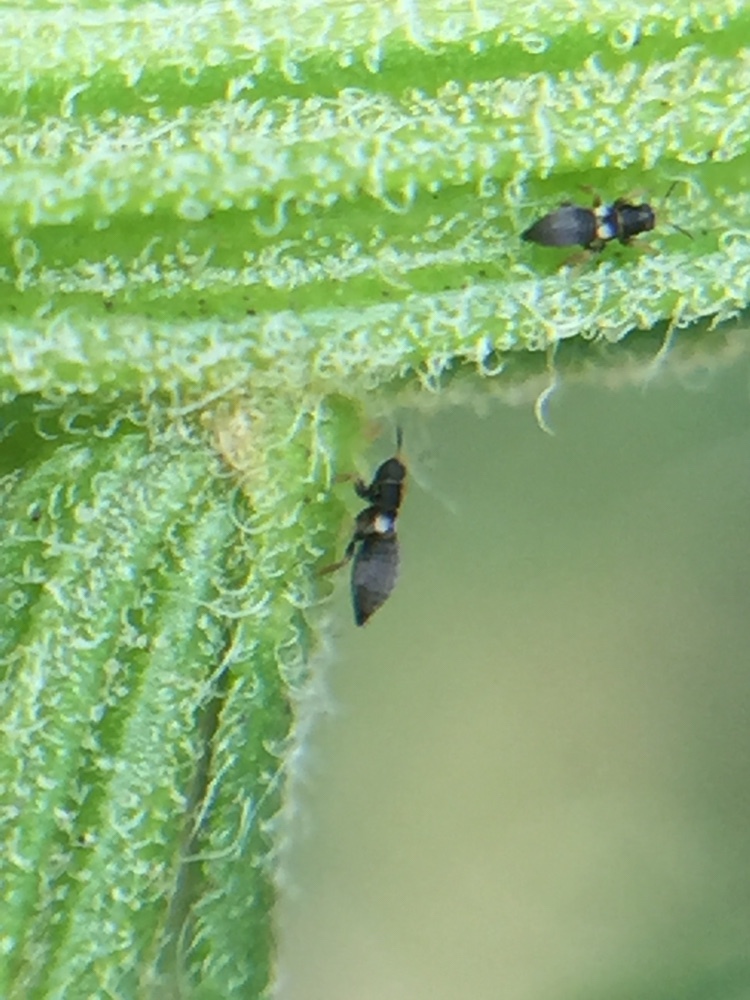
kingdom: Animalia
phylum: Arthropoda
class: Insecta
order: Thysanoptera
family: Thripidae
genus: Sericothrips
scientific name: Sericothrips staphylinus
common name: Gorse thrips
